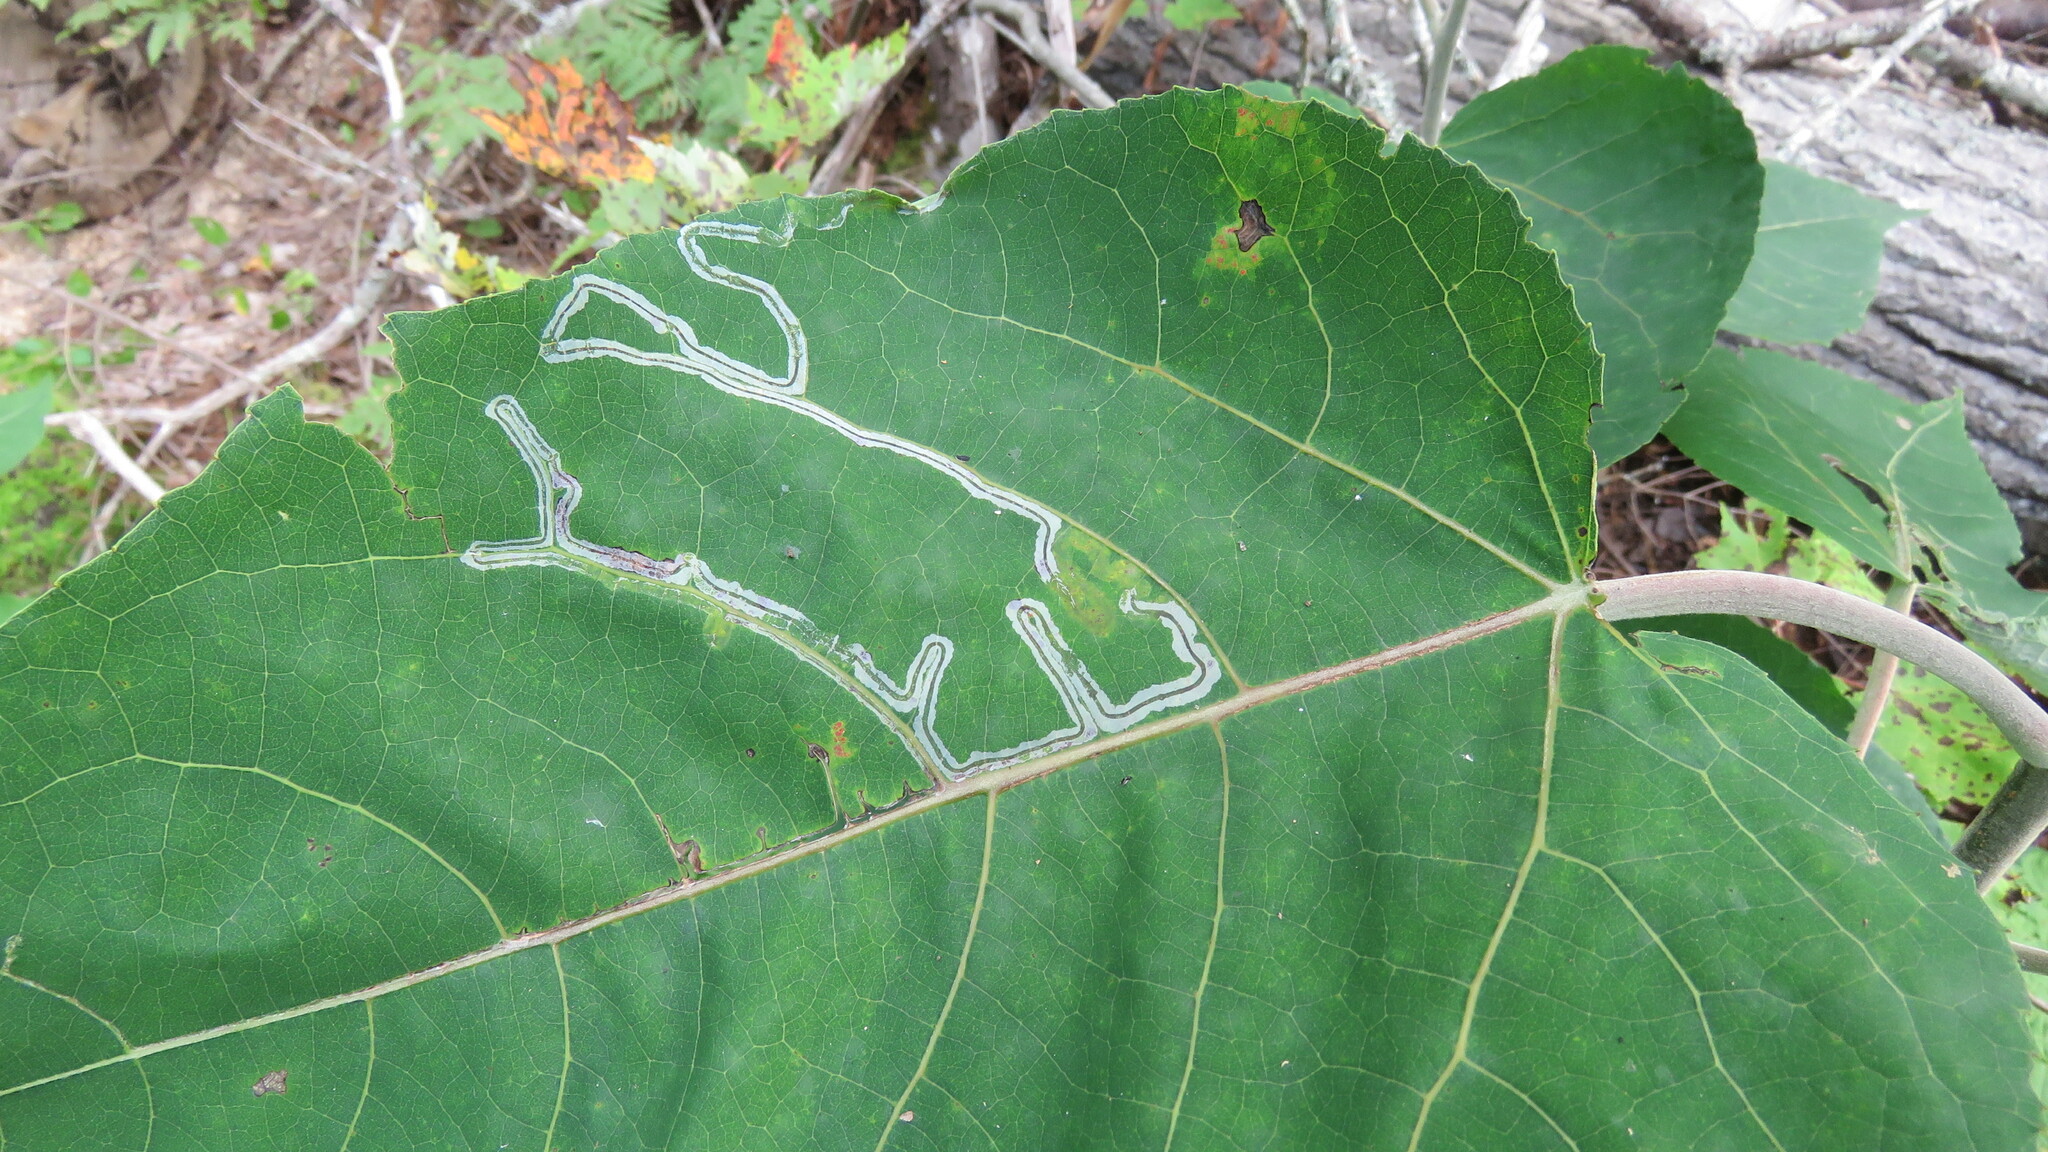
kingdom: Animalia
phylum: Arthropoda
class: Insecta
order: Lepidoptera
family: Gracillariidae
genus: Phyllocnistis
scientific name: Phyllocnistis populiella
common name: Aspen serpentine leafminer moth
